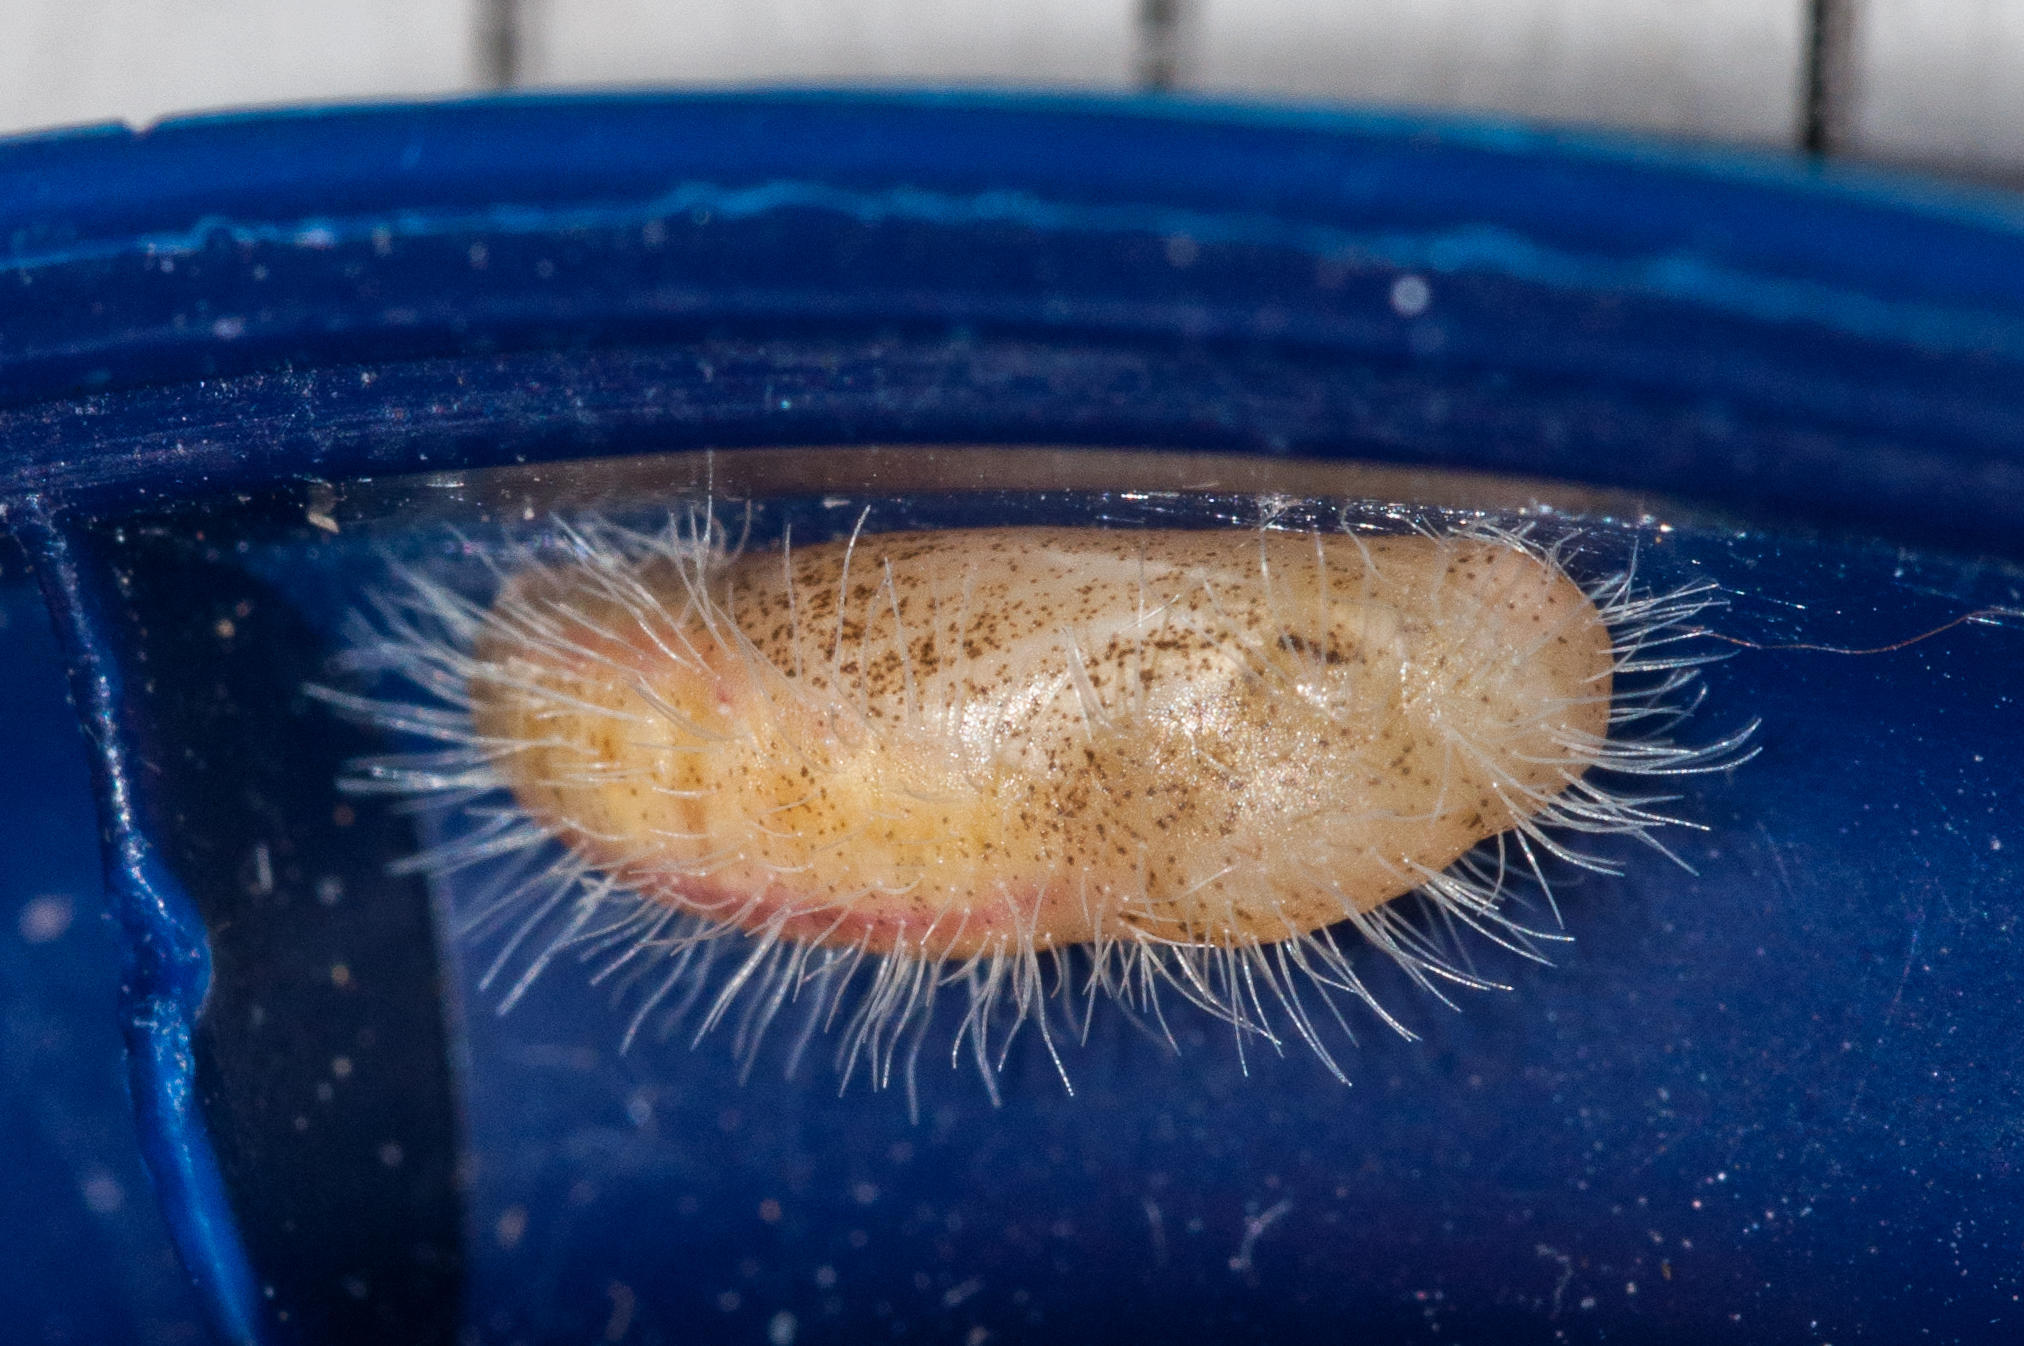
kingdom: Animalia
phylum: Arthropoda
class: Insecta
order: Lepidoptera
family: Lycaenidae
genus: Cacyreus
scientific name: Cacyreus marshalli
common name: Geranium bronze
